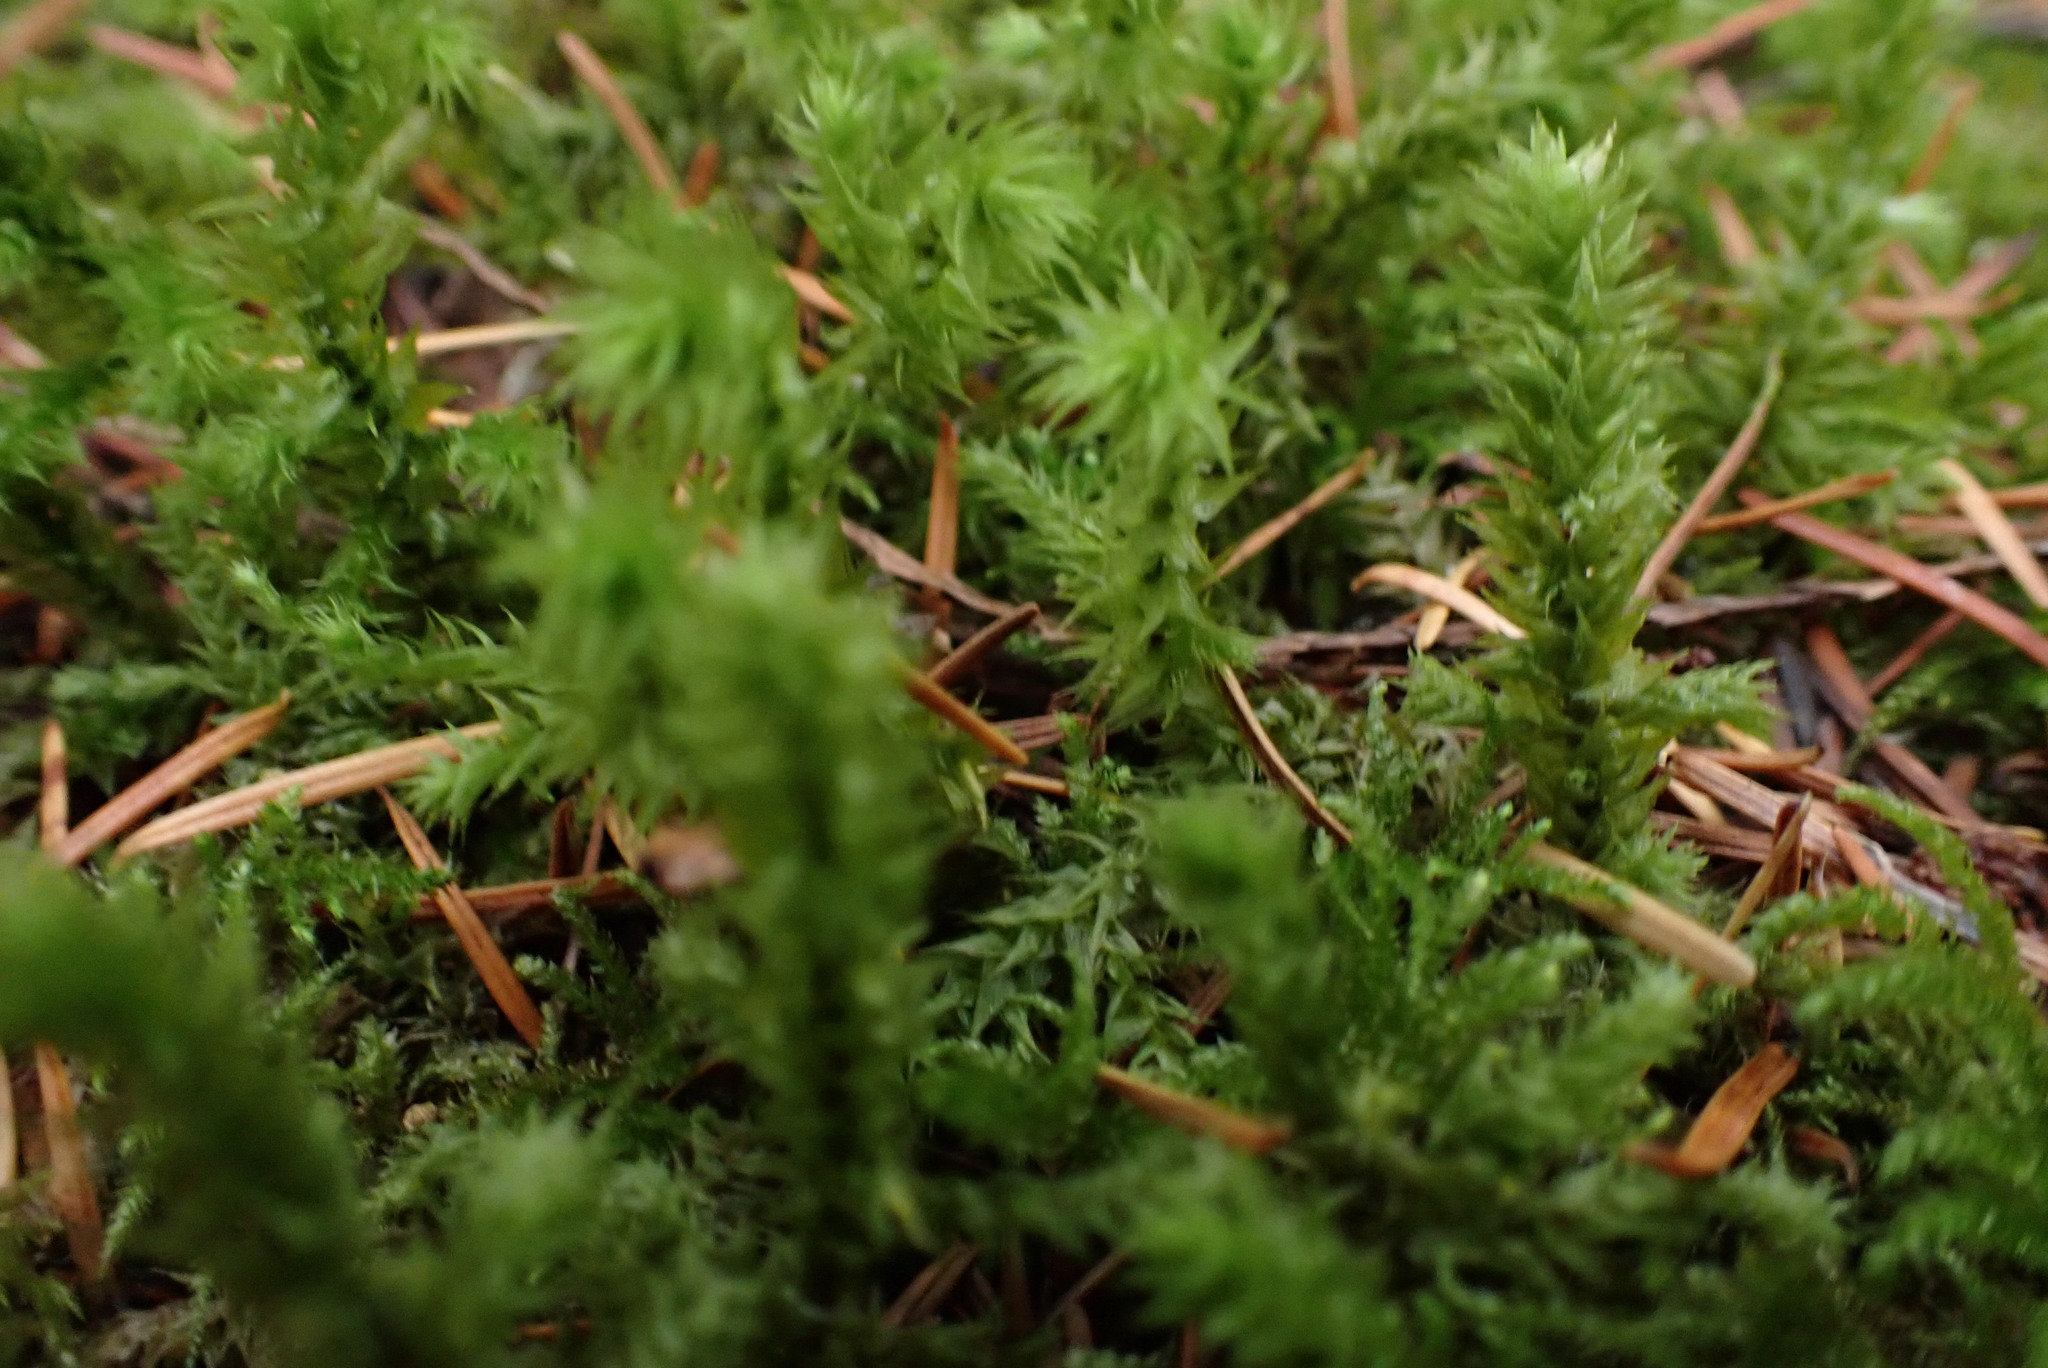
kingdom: Plantae
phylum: Bryophyta
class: Bryopsida
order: Hypnales
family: Hylocomiaceae
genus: Hylocomiadelphus
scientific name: Hylocomiadelphus triquetrus
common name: Rough goose neck moss
